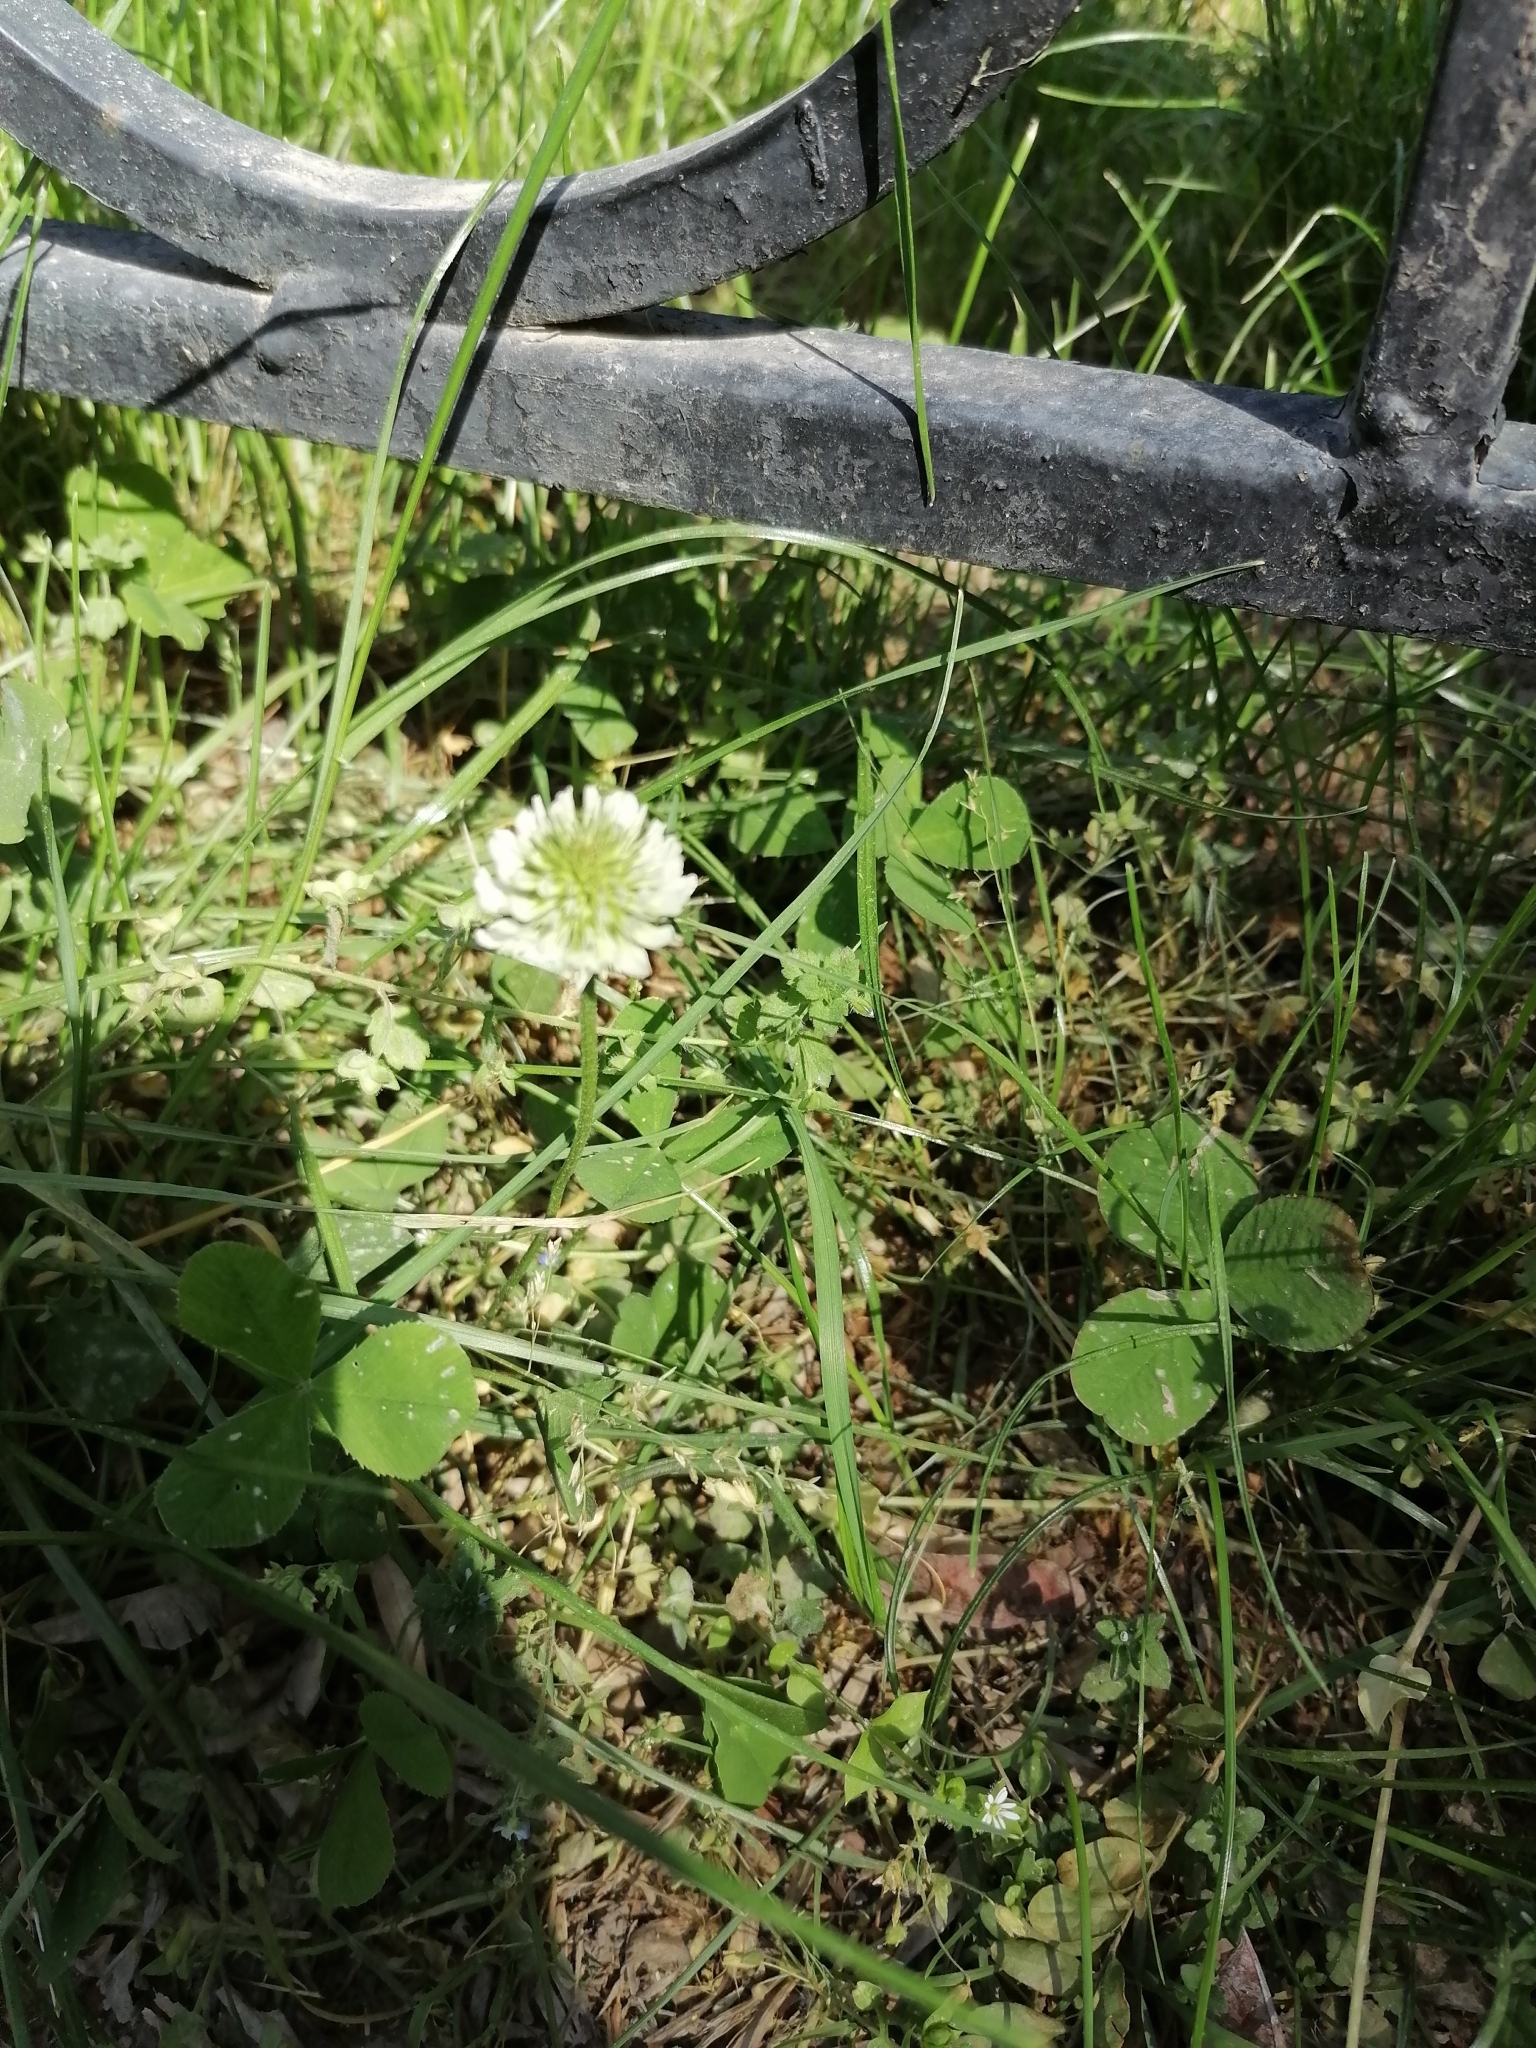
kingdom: Plantae
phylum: Tracheophyta
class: Magnoliopsida
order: Fabales
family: Fabaceae
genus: Trifolium
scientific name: Trifolium repens
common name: White clover
